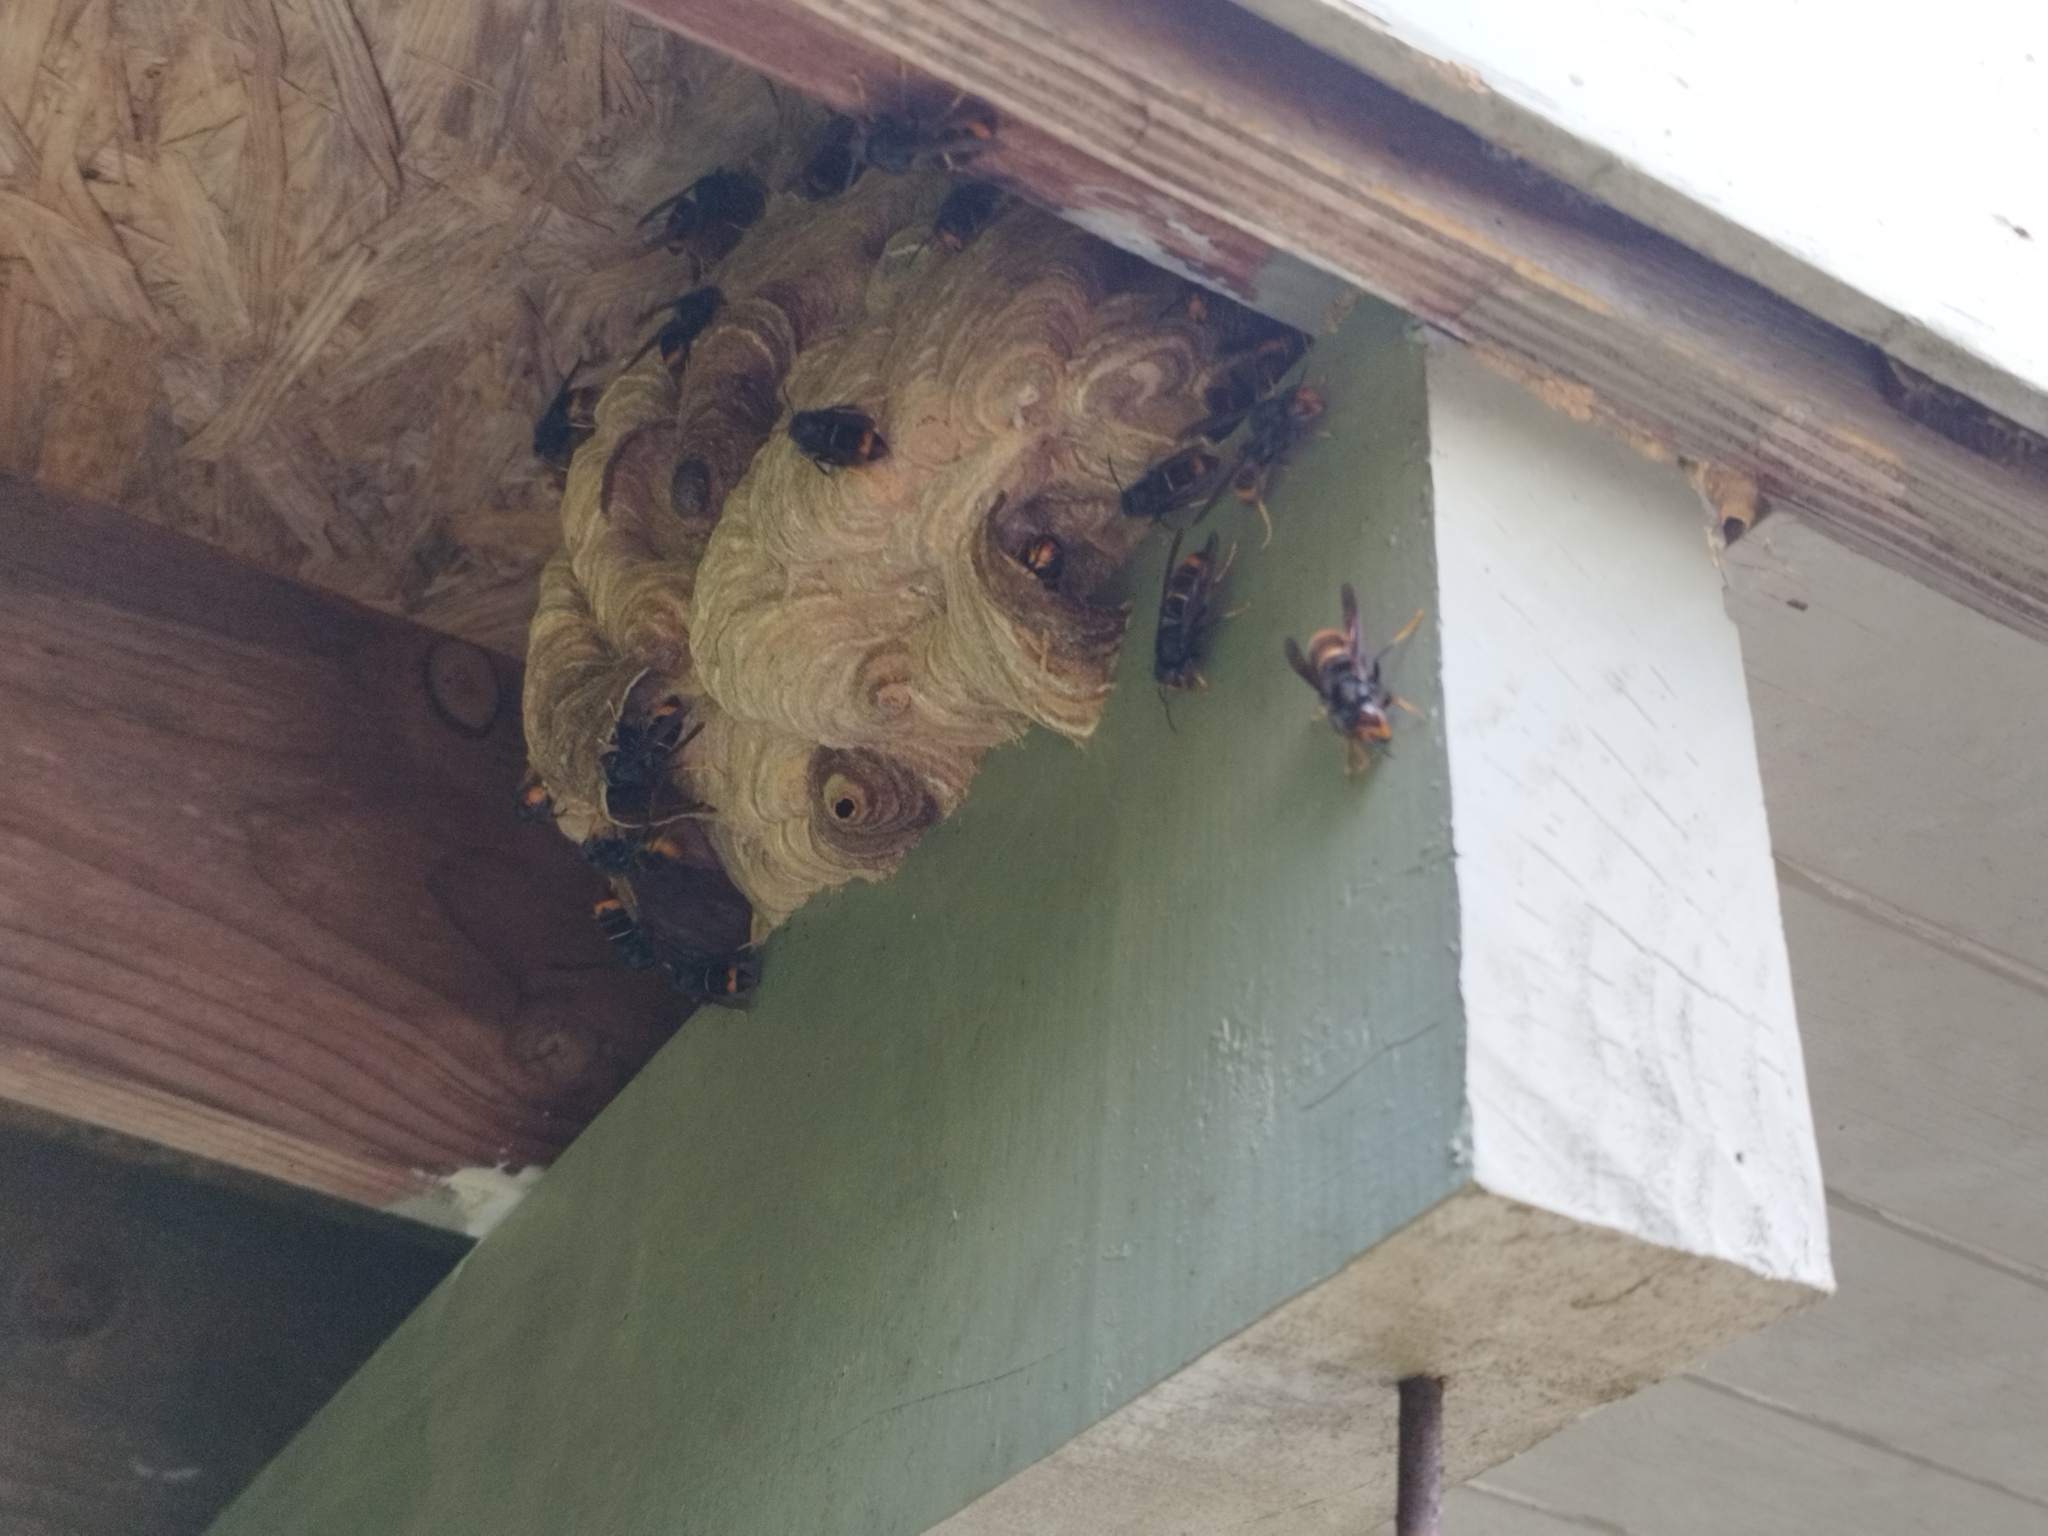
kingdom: Animalia
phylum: Arthropoda
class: Insecta
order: Hymenoptera
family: Vespidae
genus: Vespa
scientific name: Vespa velutina
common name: Asian hornet
